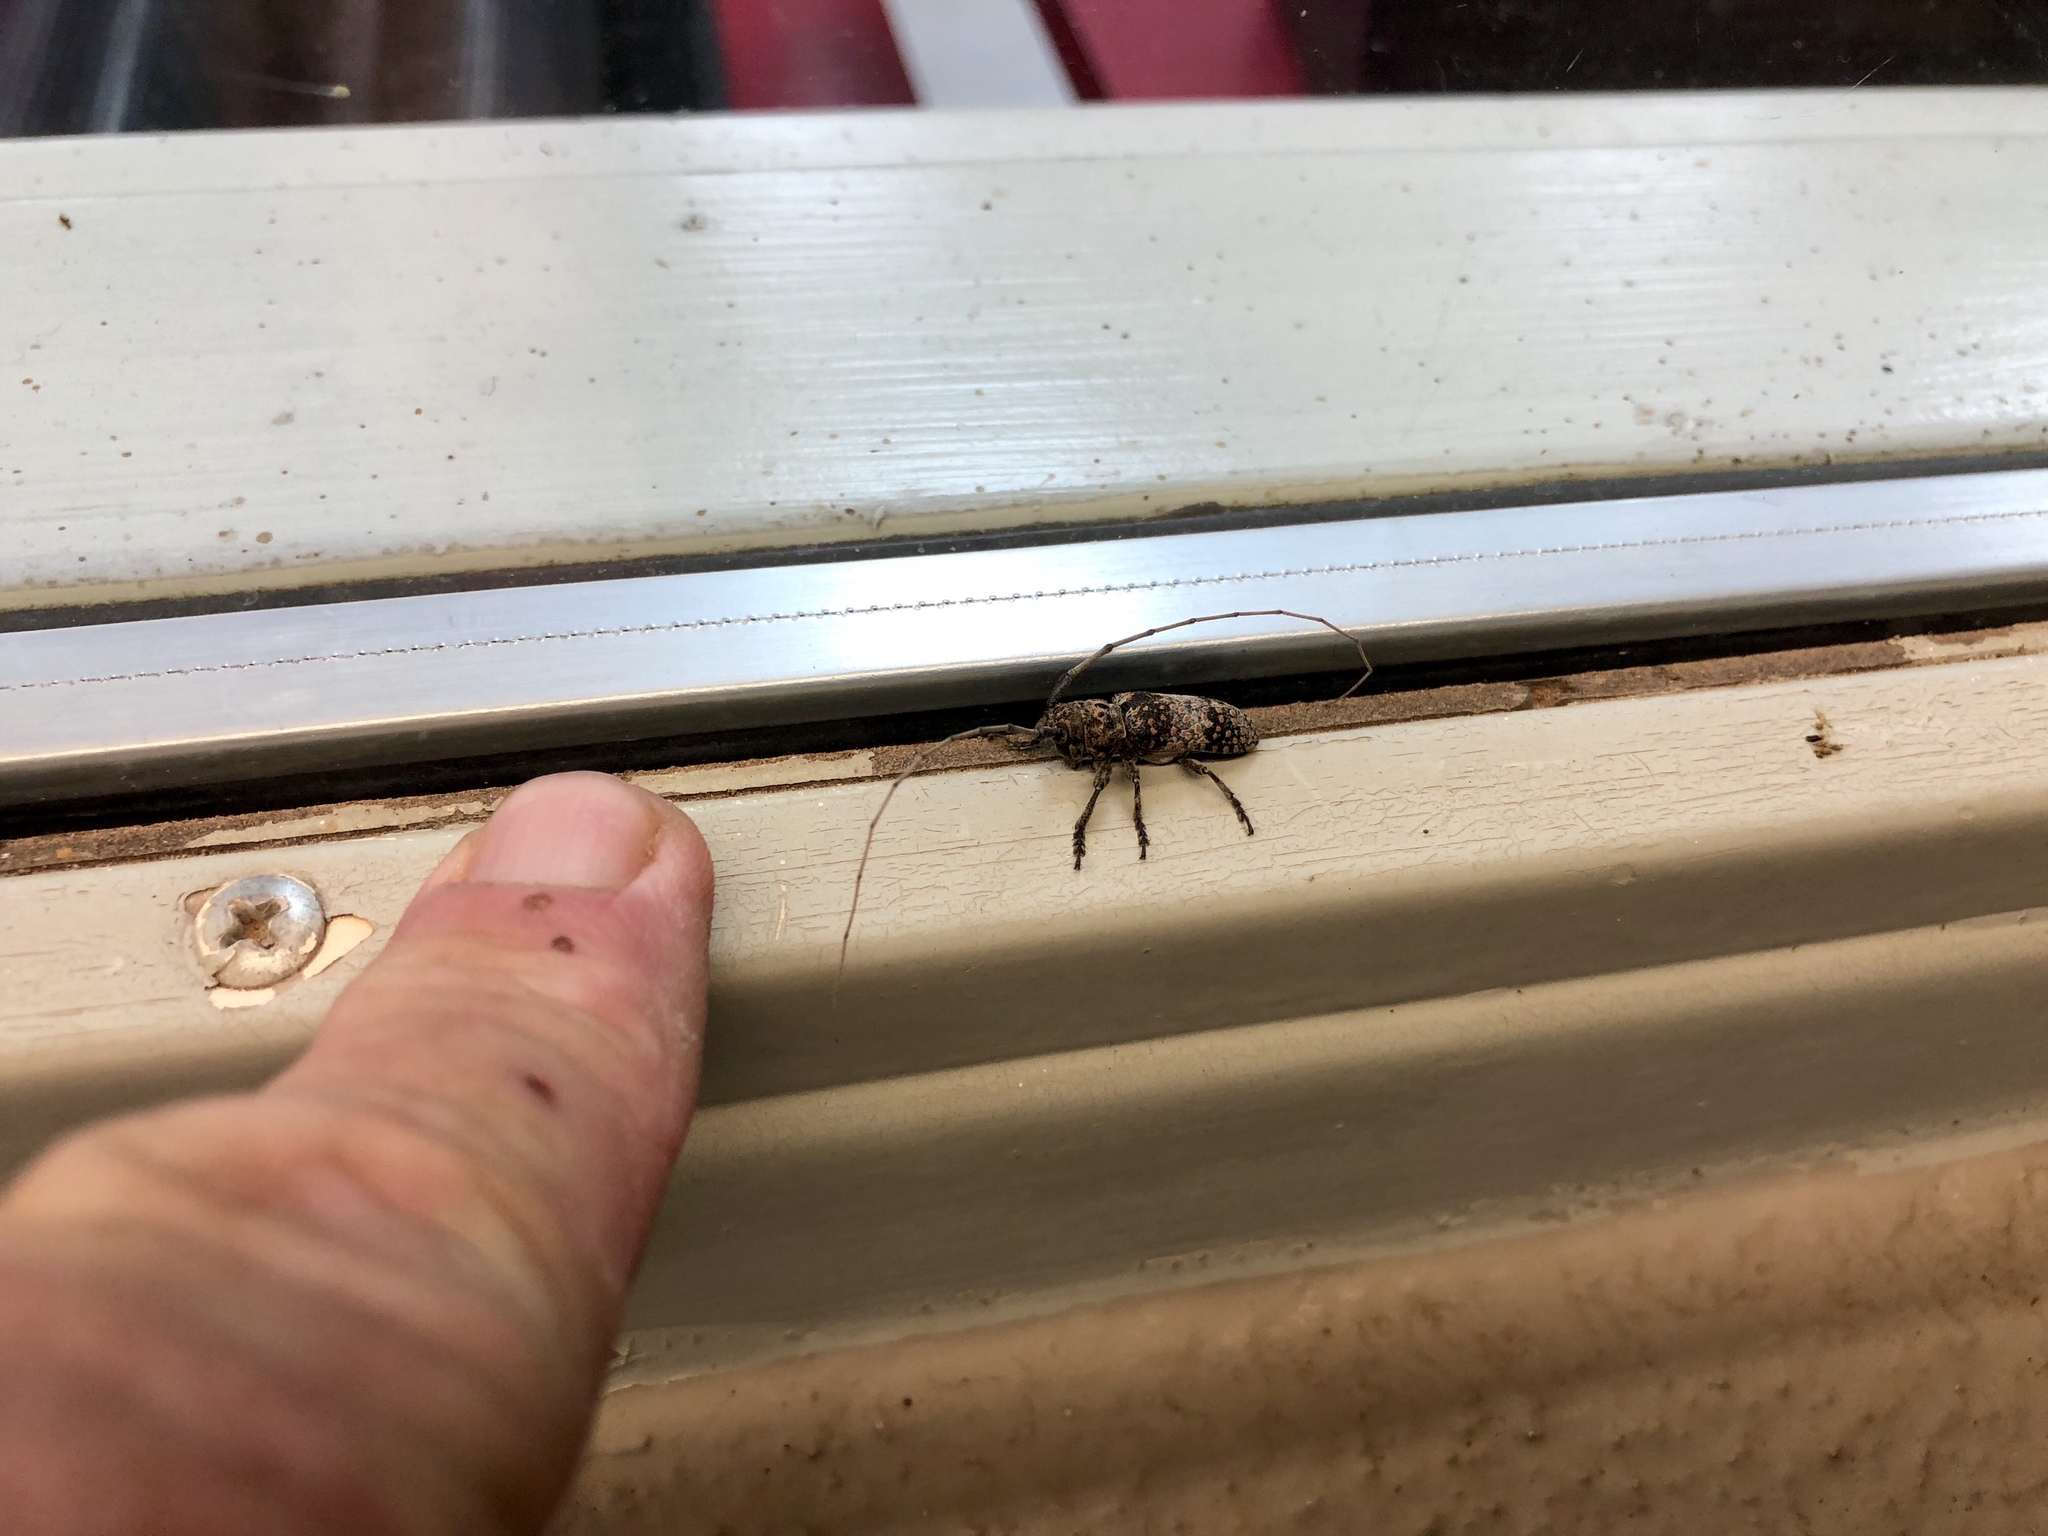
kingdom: Animalia
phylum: Arthropoda
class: Insecta
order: Coleoptera
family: Cerambycidae
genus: Oncideres
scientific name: Oncideres rhodosticta
